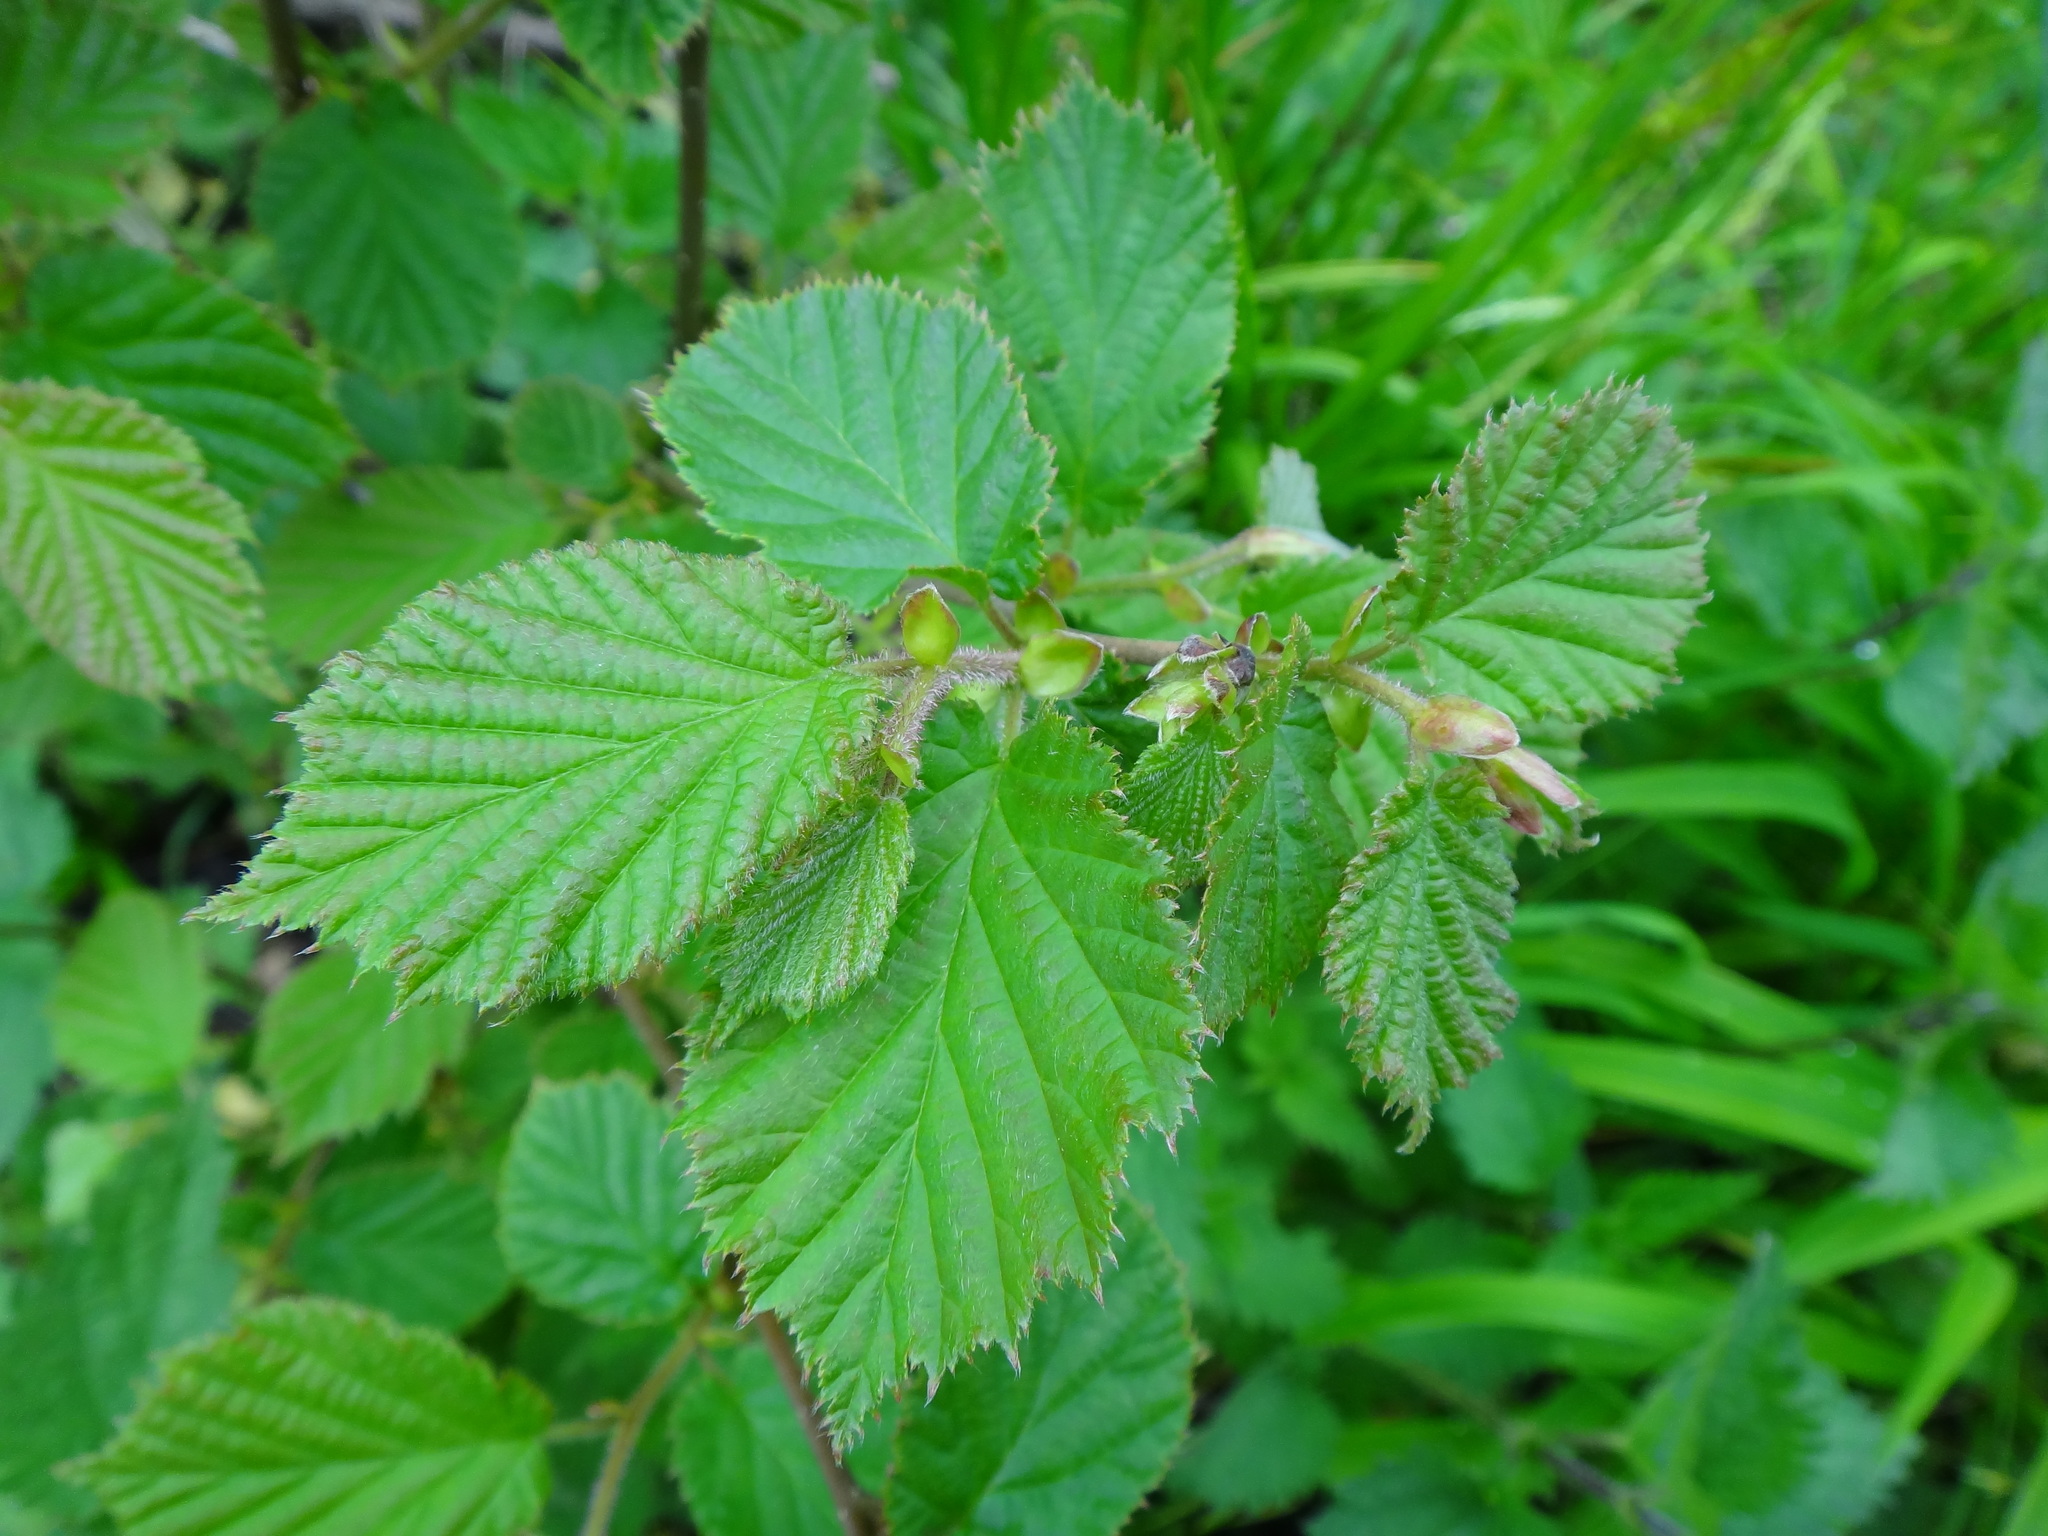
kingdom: Plantae
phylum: Tracheophyta
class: Magnoliopsida
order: Fagales
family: Betulaceae
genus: Corylus
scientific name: Corylus avellana
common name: European hazel
